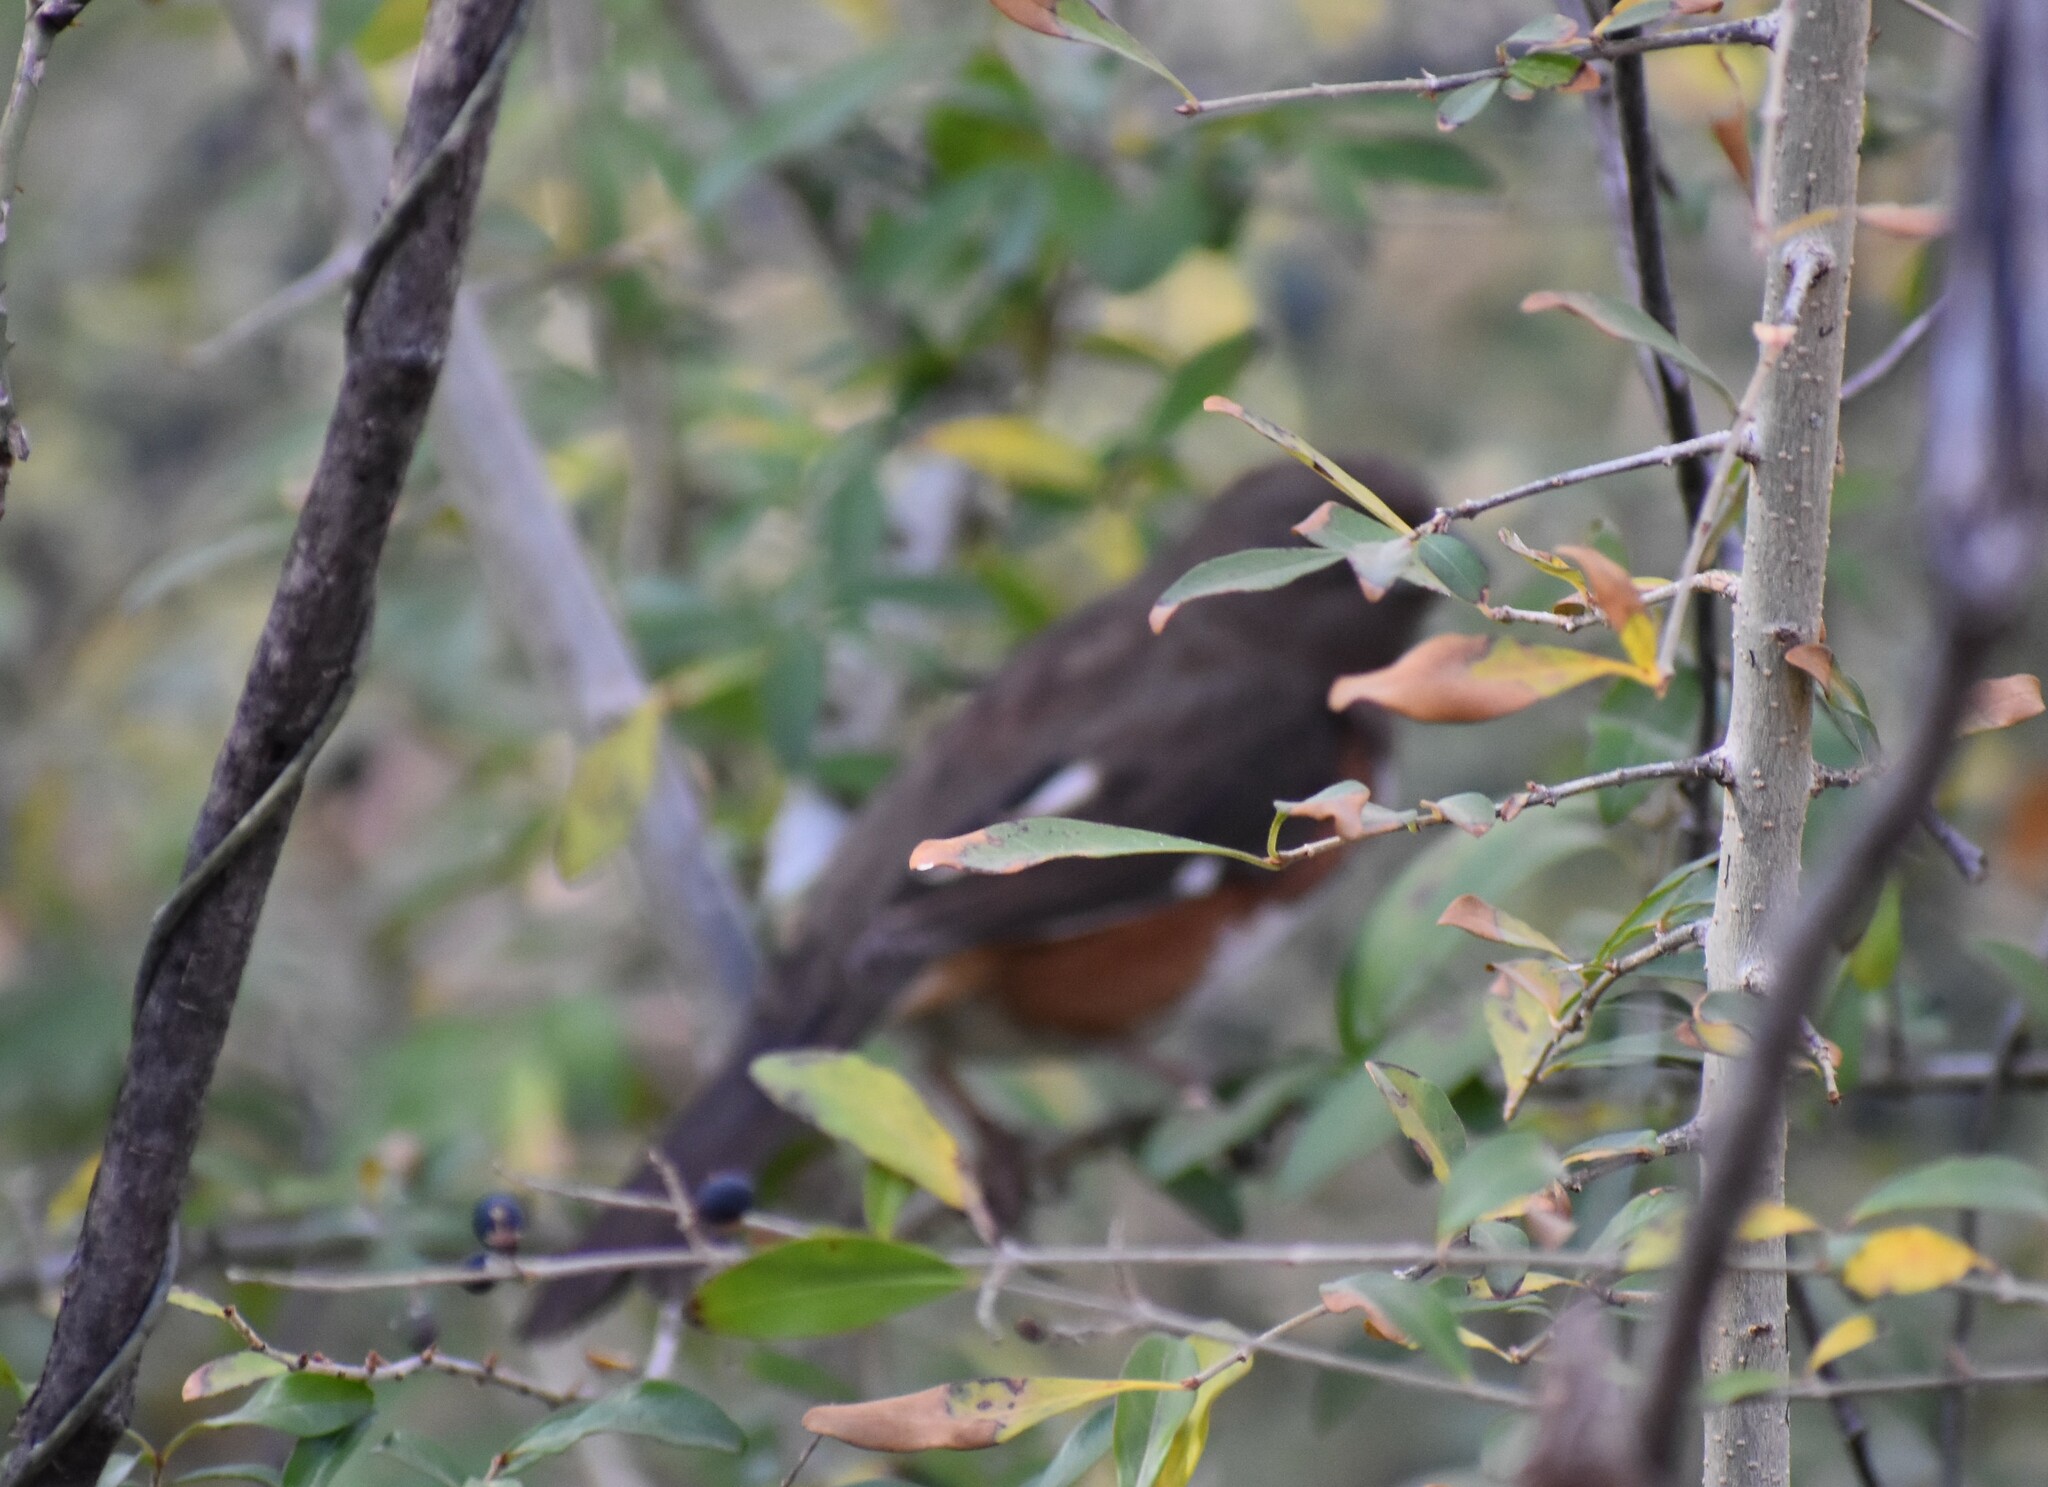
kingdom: Animalia
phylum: Chordata
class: Aves
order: Passeriformes
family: Passerellidae
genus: Pipilo
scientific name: Pipilo erythrophthalmus
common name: Eastern towhee
